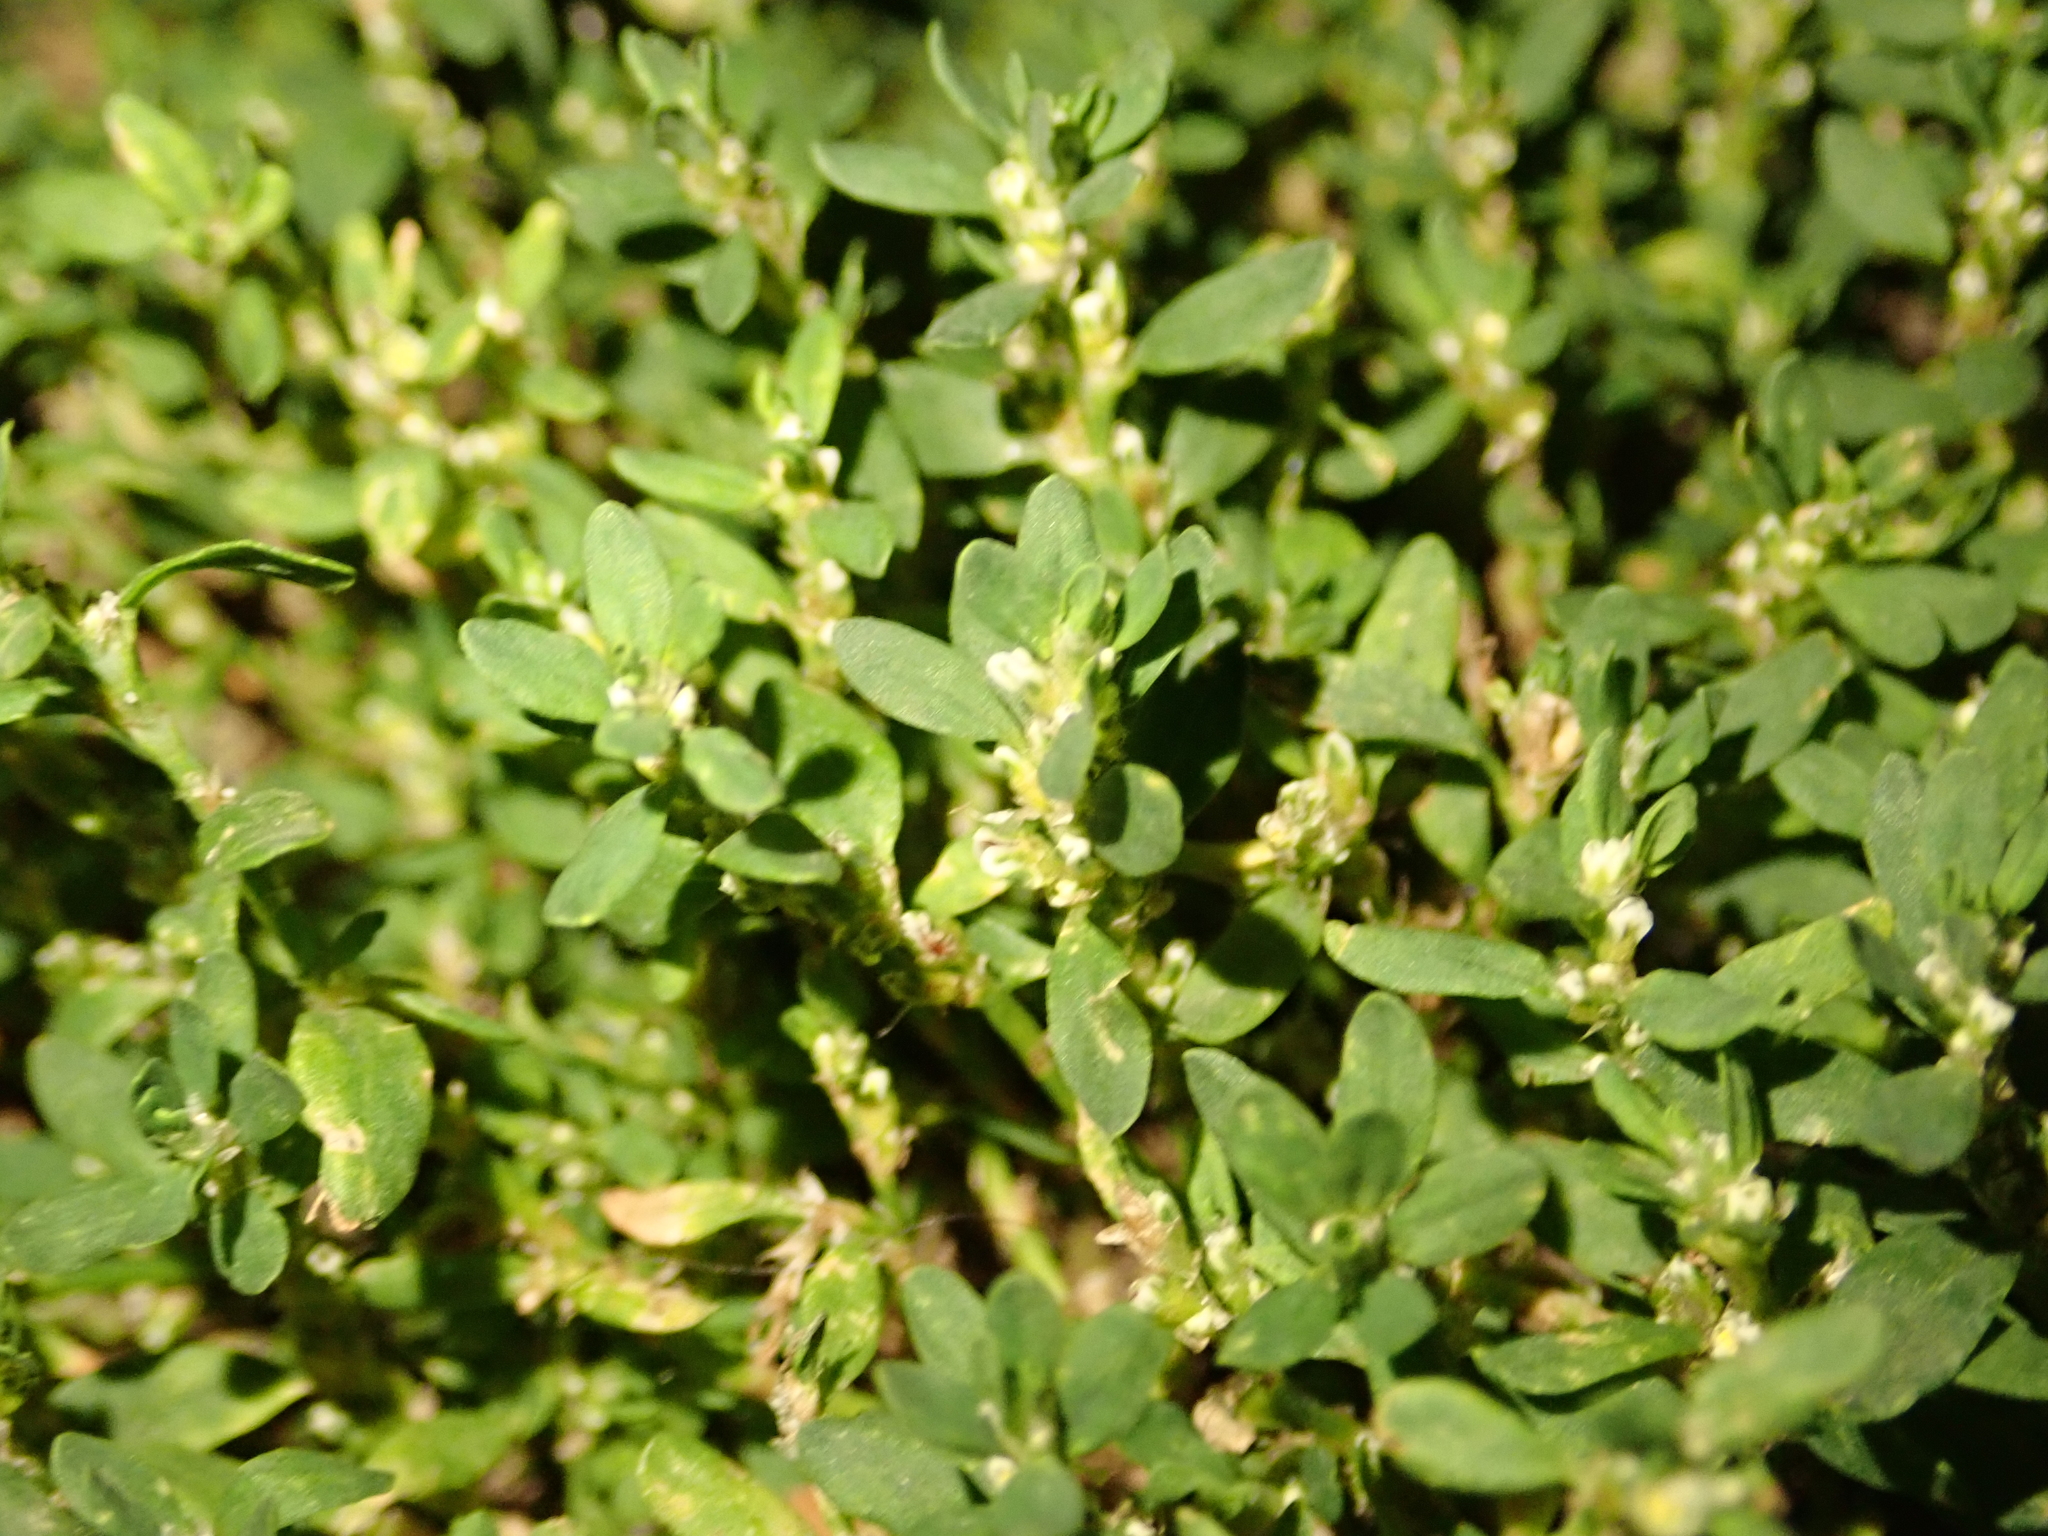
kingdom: Plantae
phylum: Tracheophyta
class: Magnoliopsida
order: Caryophyllales
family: Polygonaceae
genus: Polygonum
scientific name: Polygonum aviculare
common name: Prostrate knotweed
